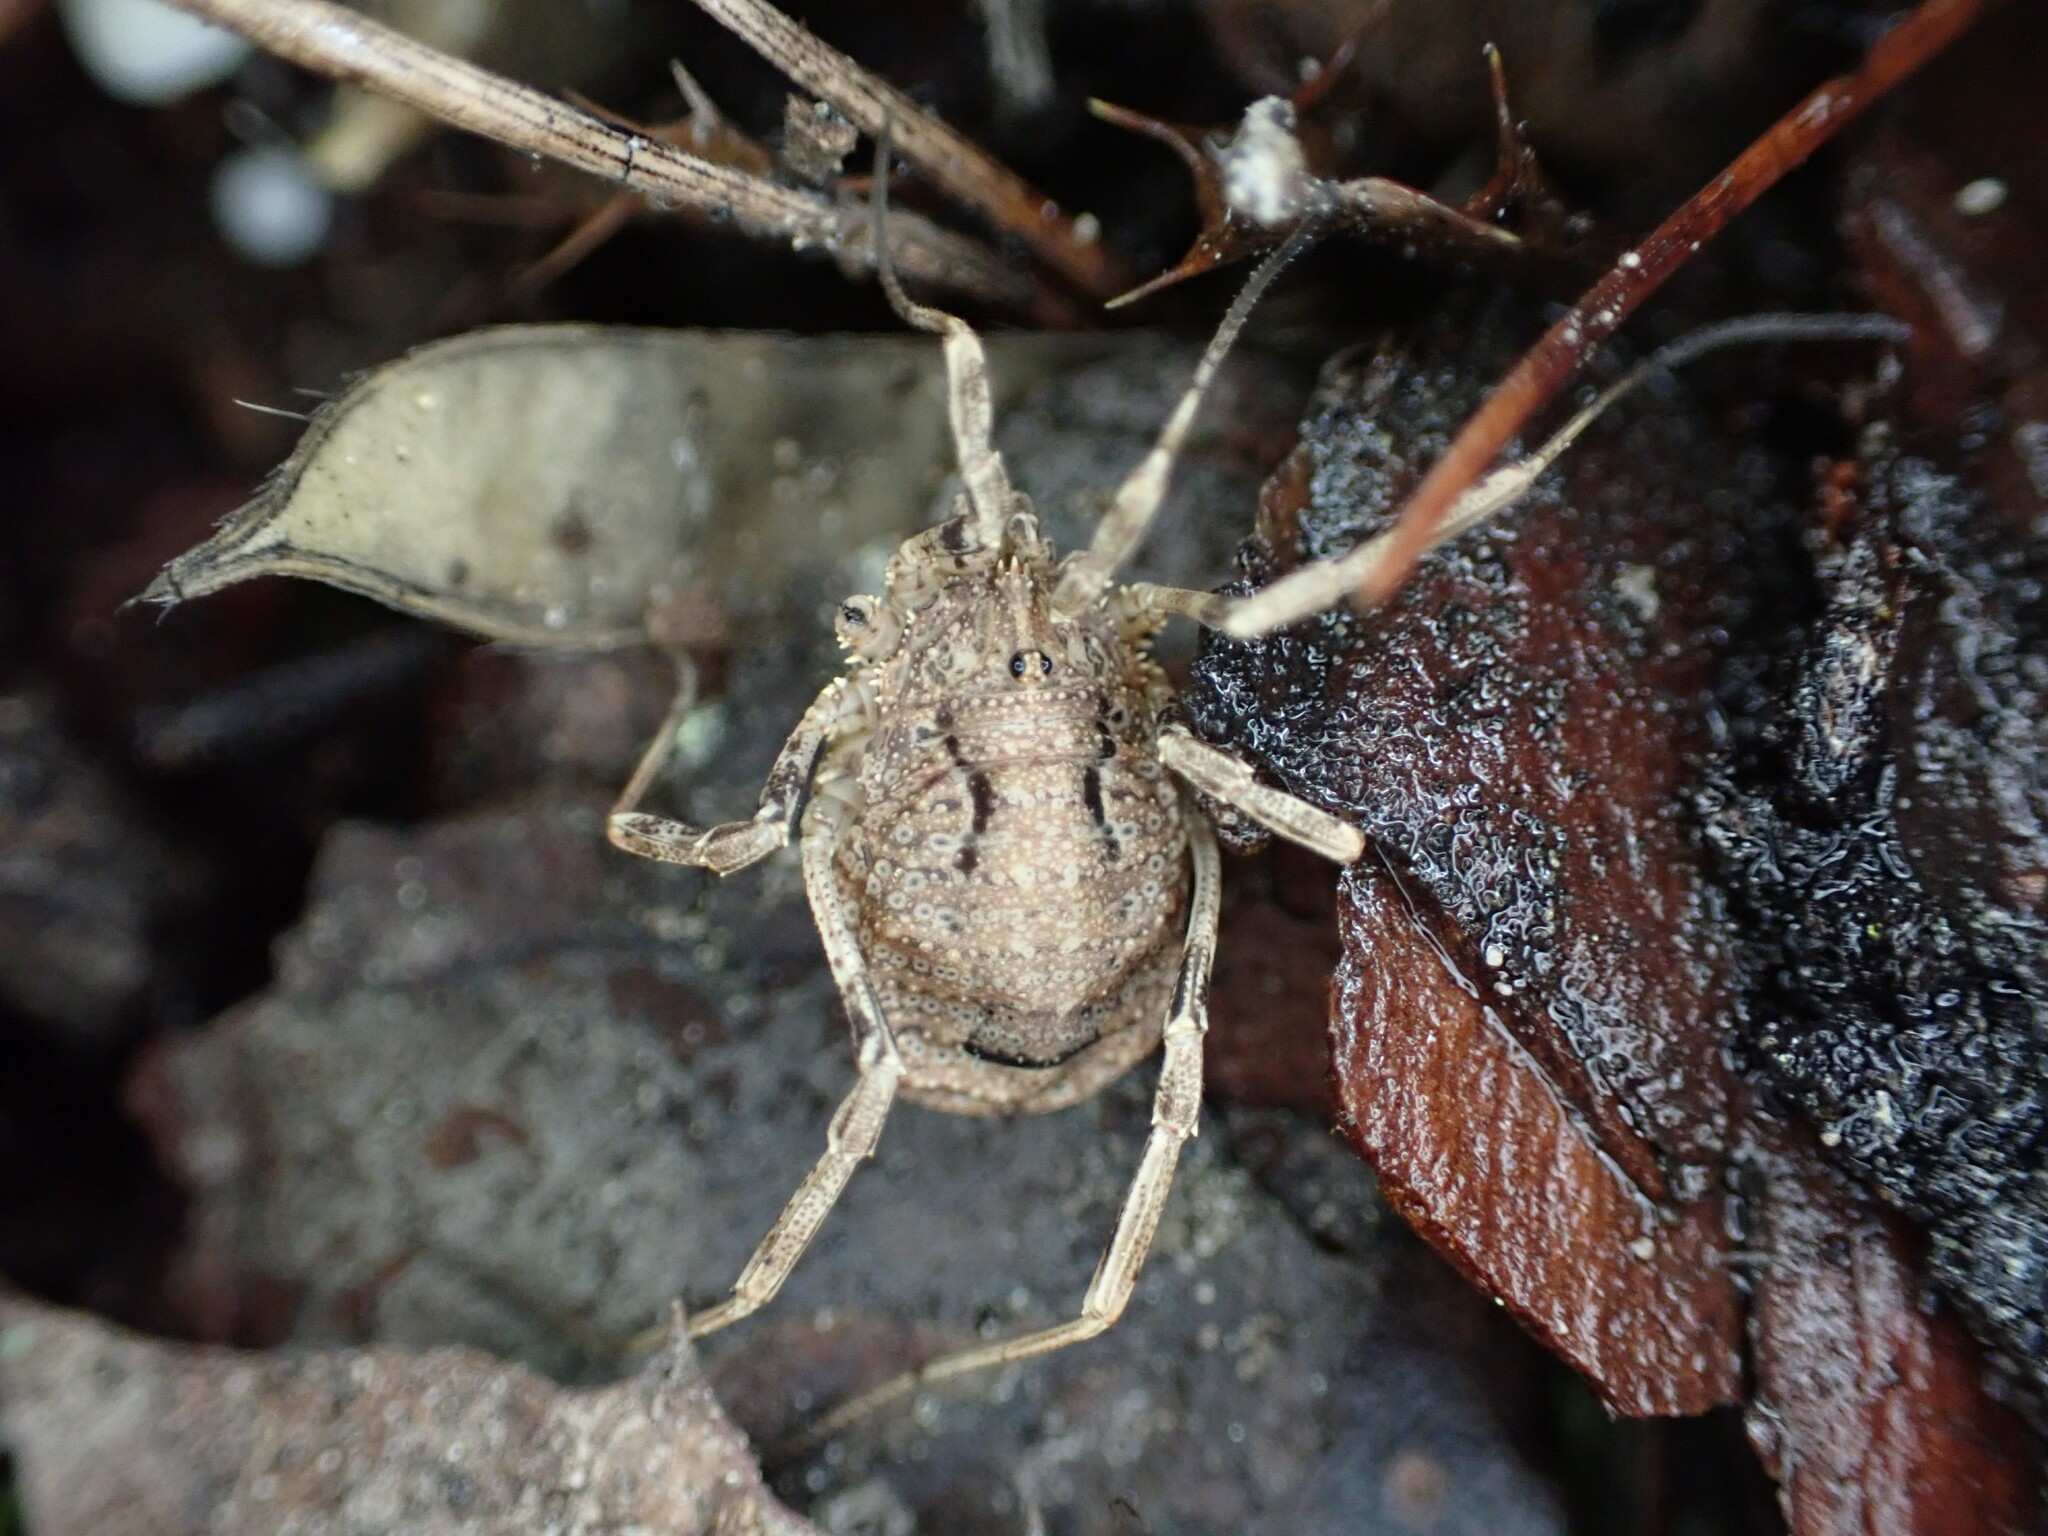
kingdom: Animalia
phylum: Arthropoda
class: Arachnida
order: Opiliones
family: Phalangiidae
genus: Odiellus
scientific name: Odiellus spinosus
